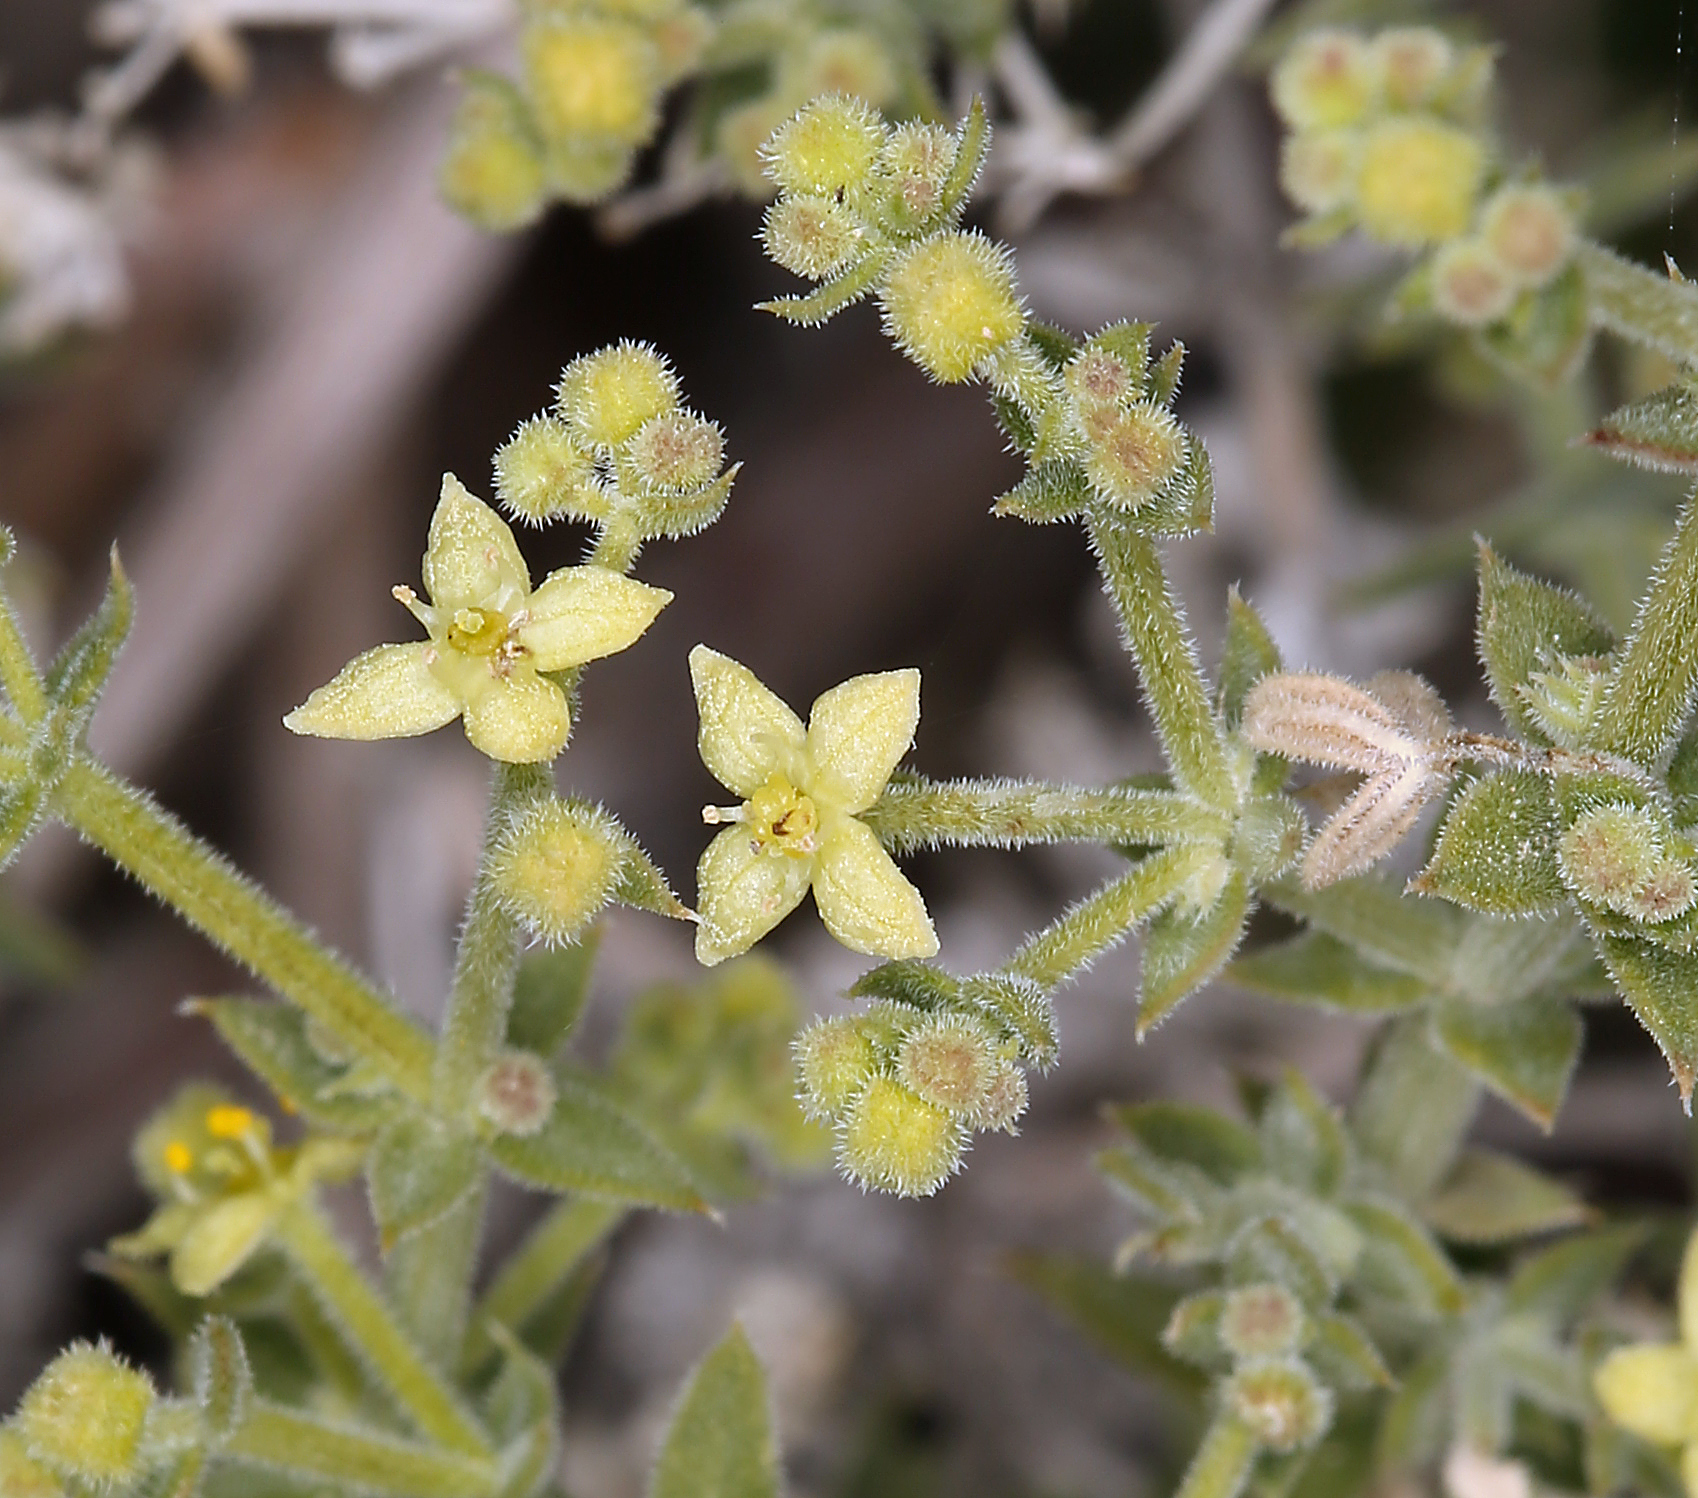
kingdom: Plantae
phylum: Tracheophyta
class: Magnoliopsida
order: Gentianales
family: Rubiaceae
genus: Galium
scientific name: Galium stellatum
